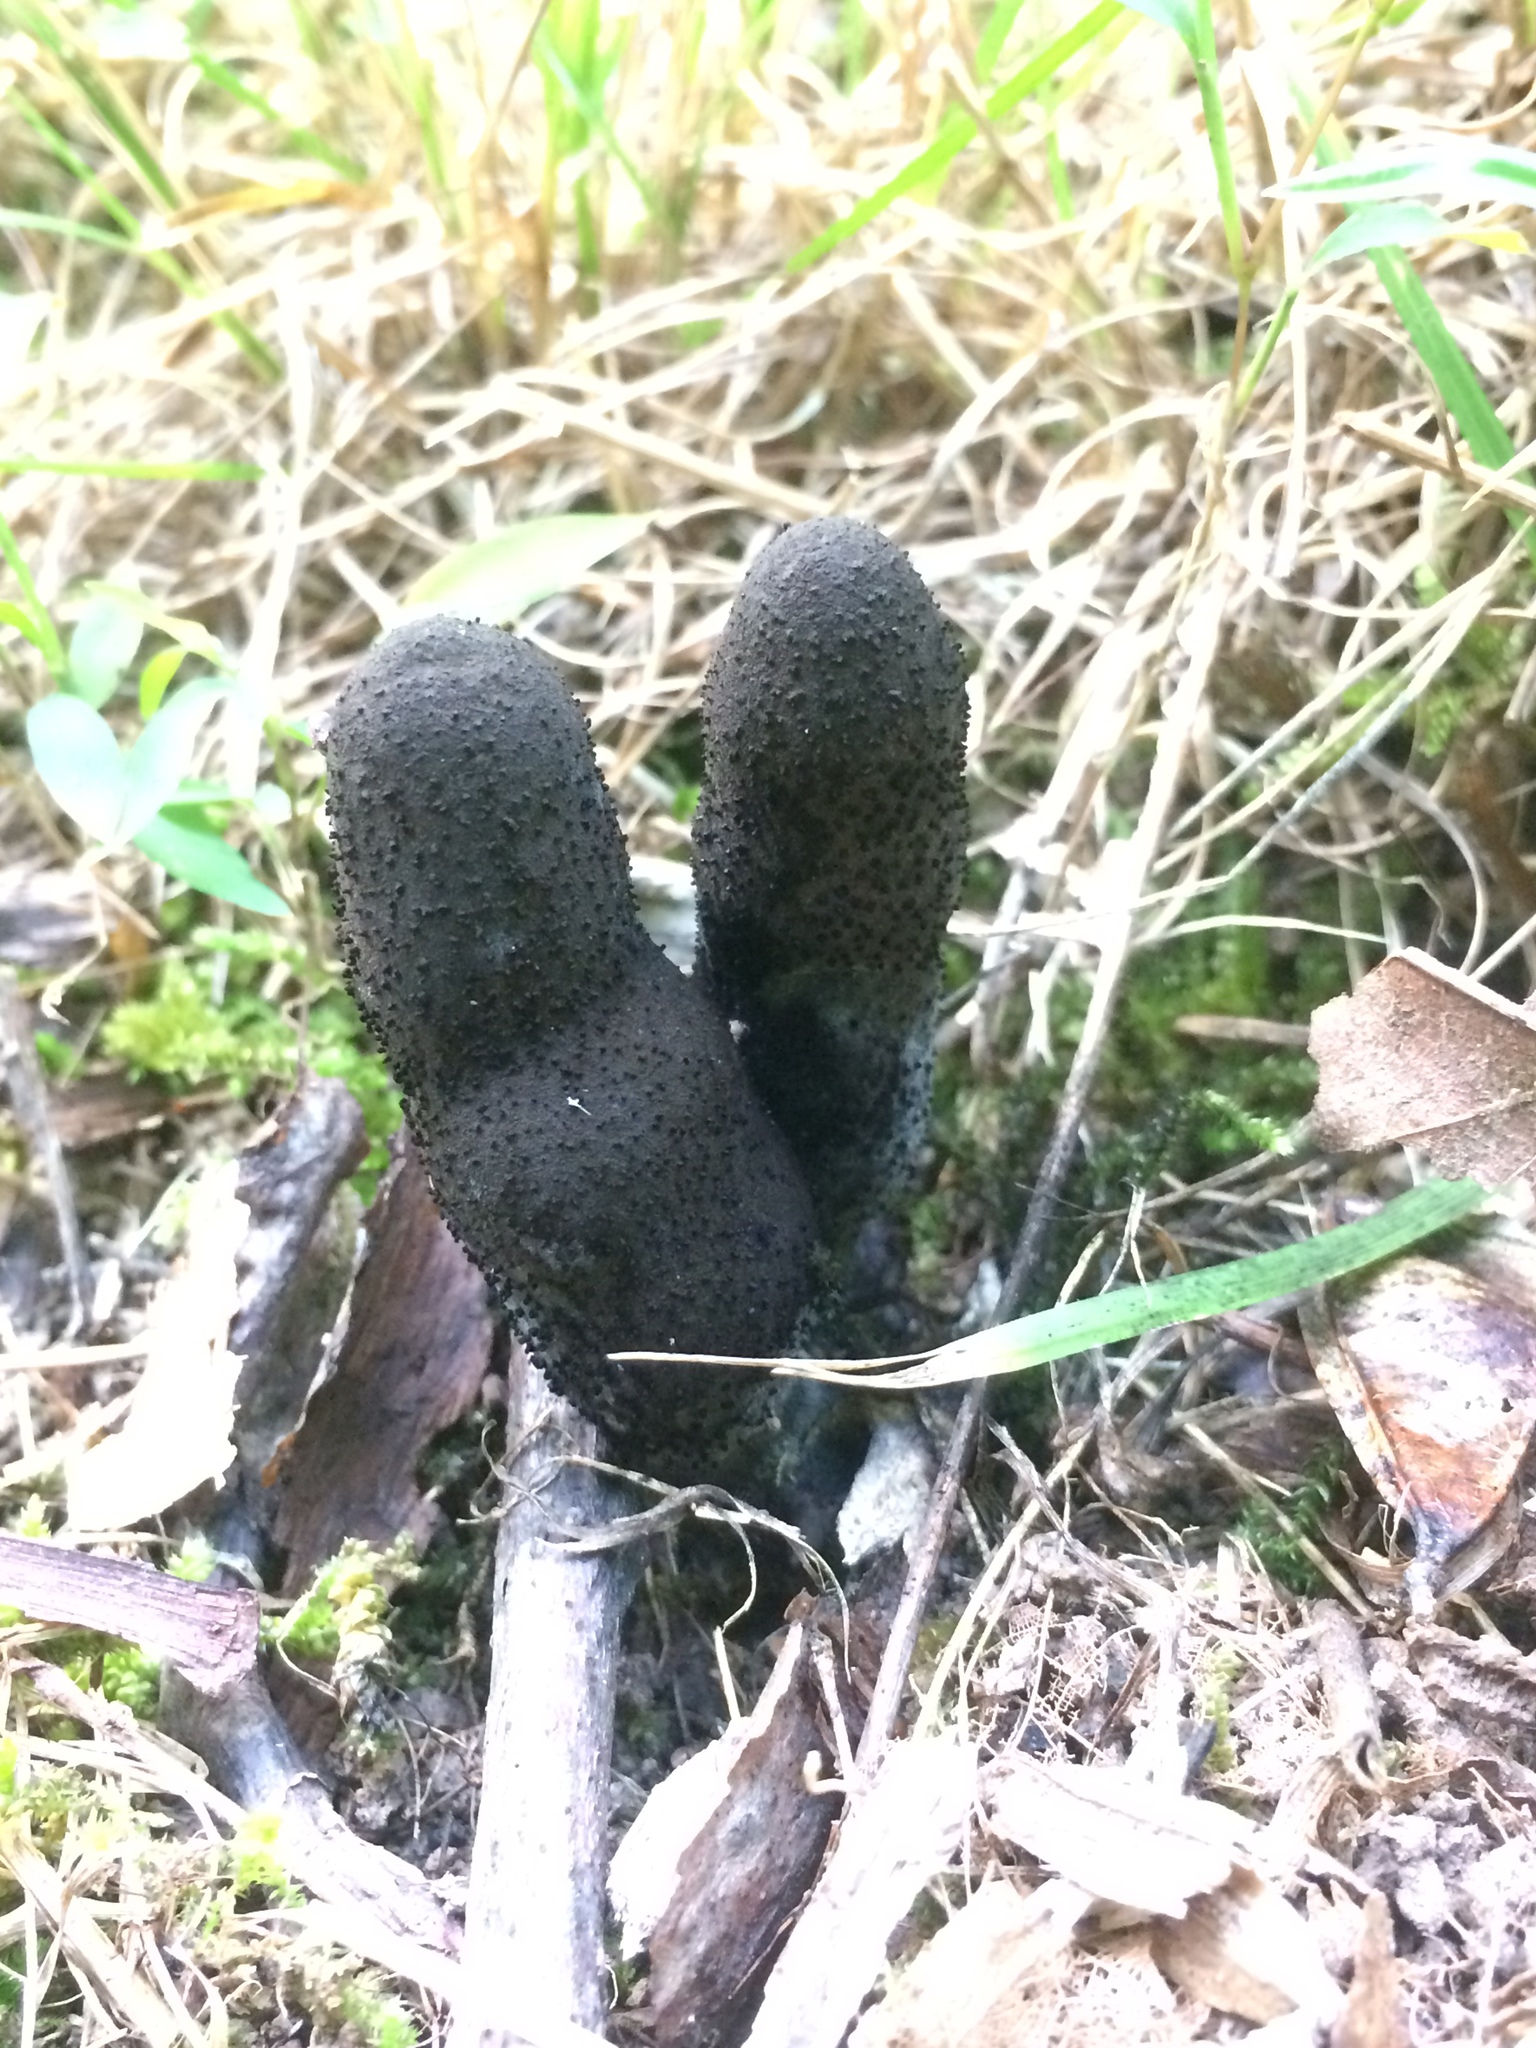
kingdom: Fungi
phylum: Ascomycota
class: Sordariomycetes
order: Xylariales
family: Xylariaceae
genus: Xylaria
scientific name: Xylaria polymorpha
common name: Dead man's fingers
